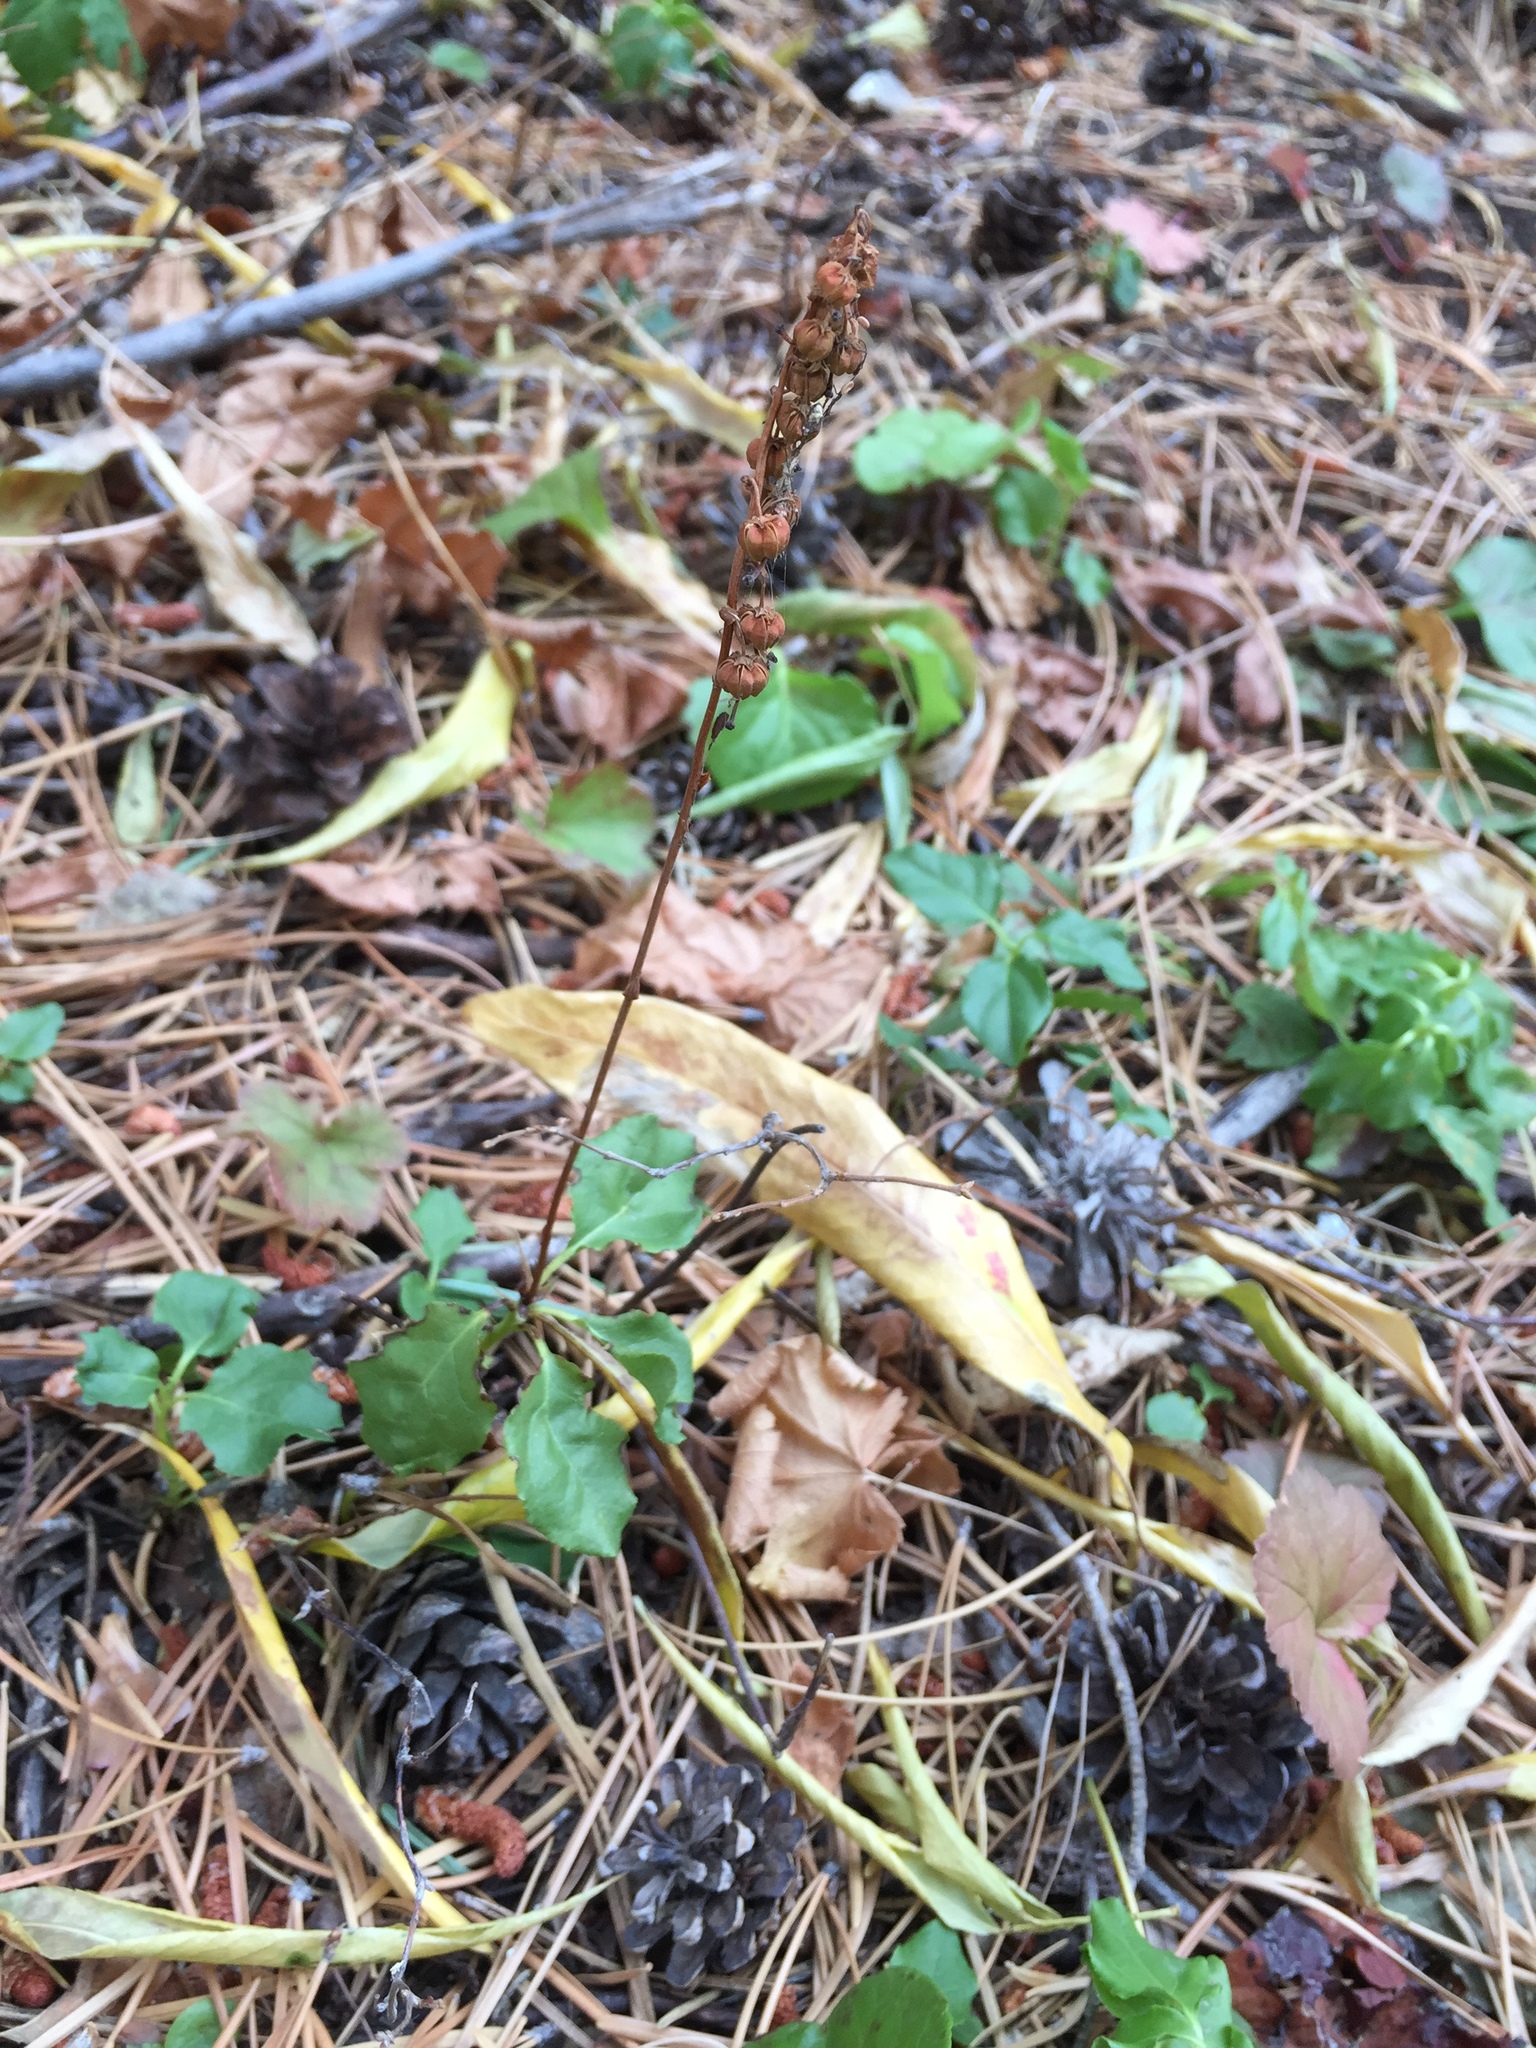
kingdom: Plantae
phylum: Tracheophyta
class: Magnoliopsida
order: Ericales
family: Ericaceae
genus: Orthilia
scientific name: Orthilia secunda
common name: One-sided orthilia
